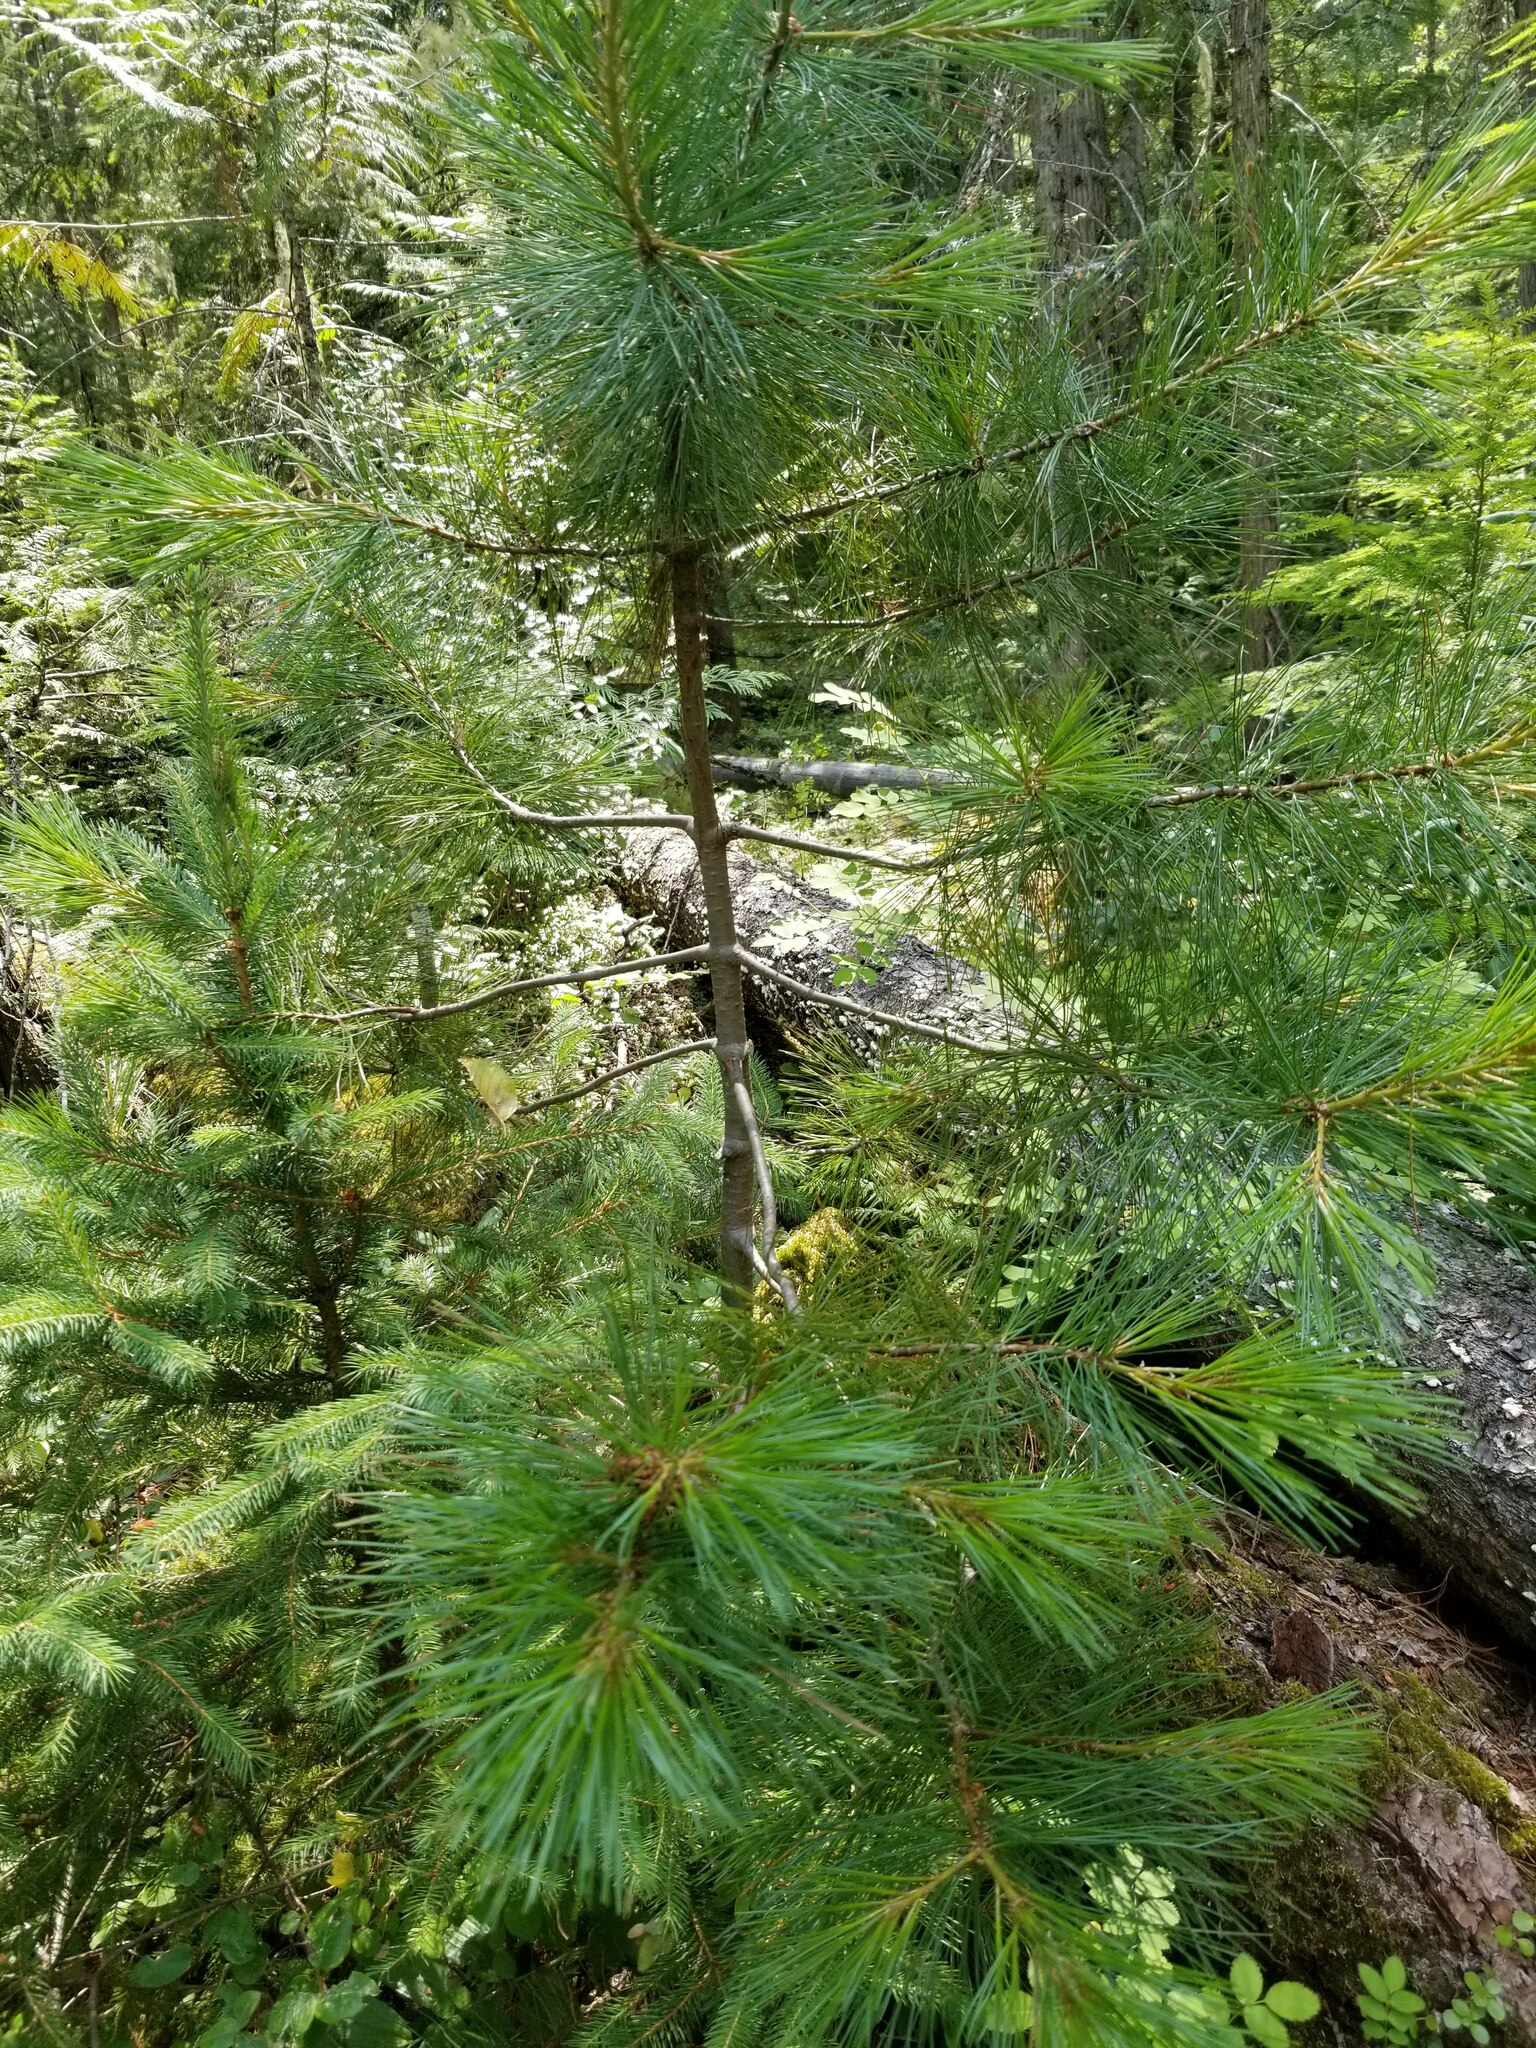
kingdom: Plantae
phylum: Tracheophyta
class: Pinopsida
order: Pinales
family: Pinaceae
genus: Pinus
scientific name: Pinus monticola
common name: Western white pine
